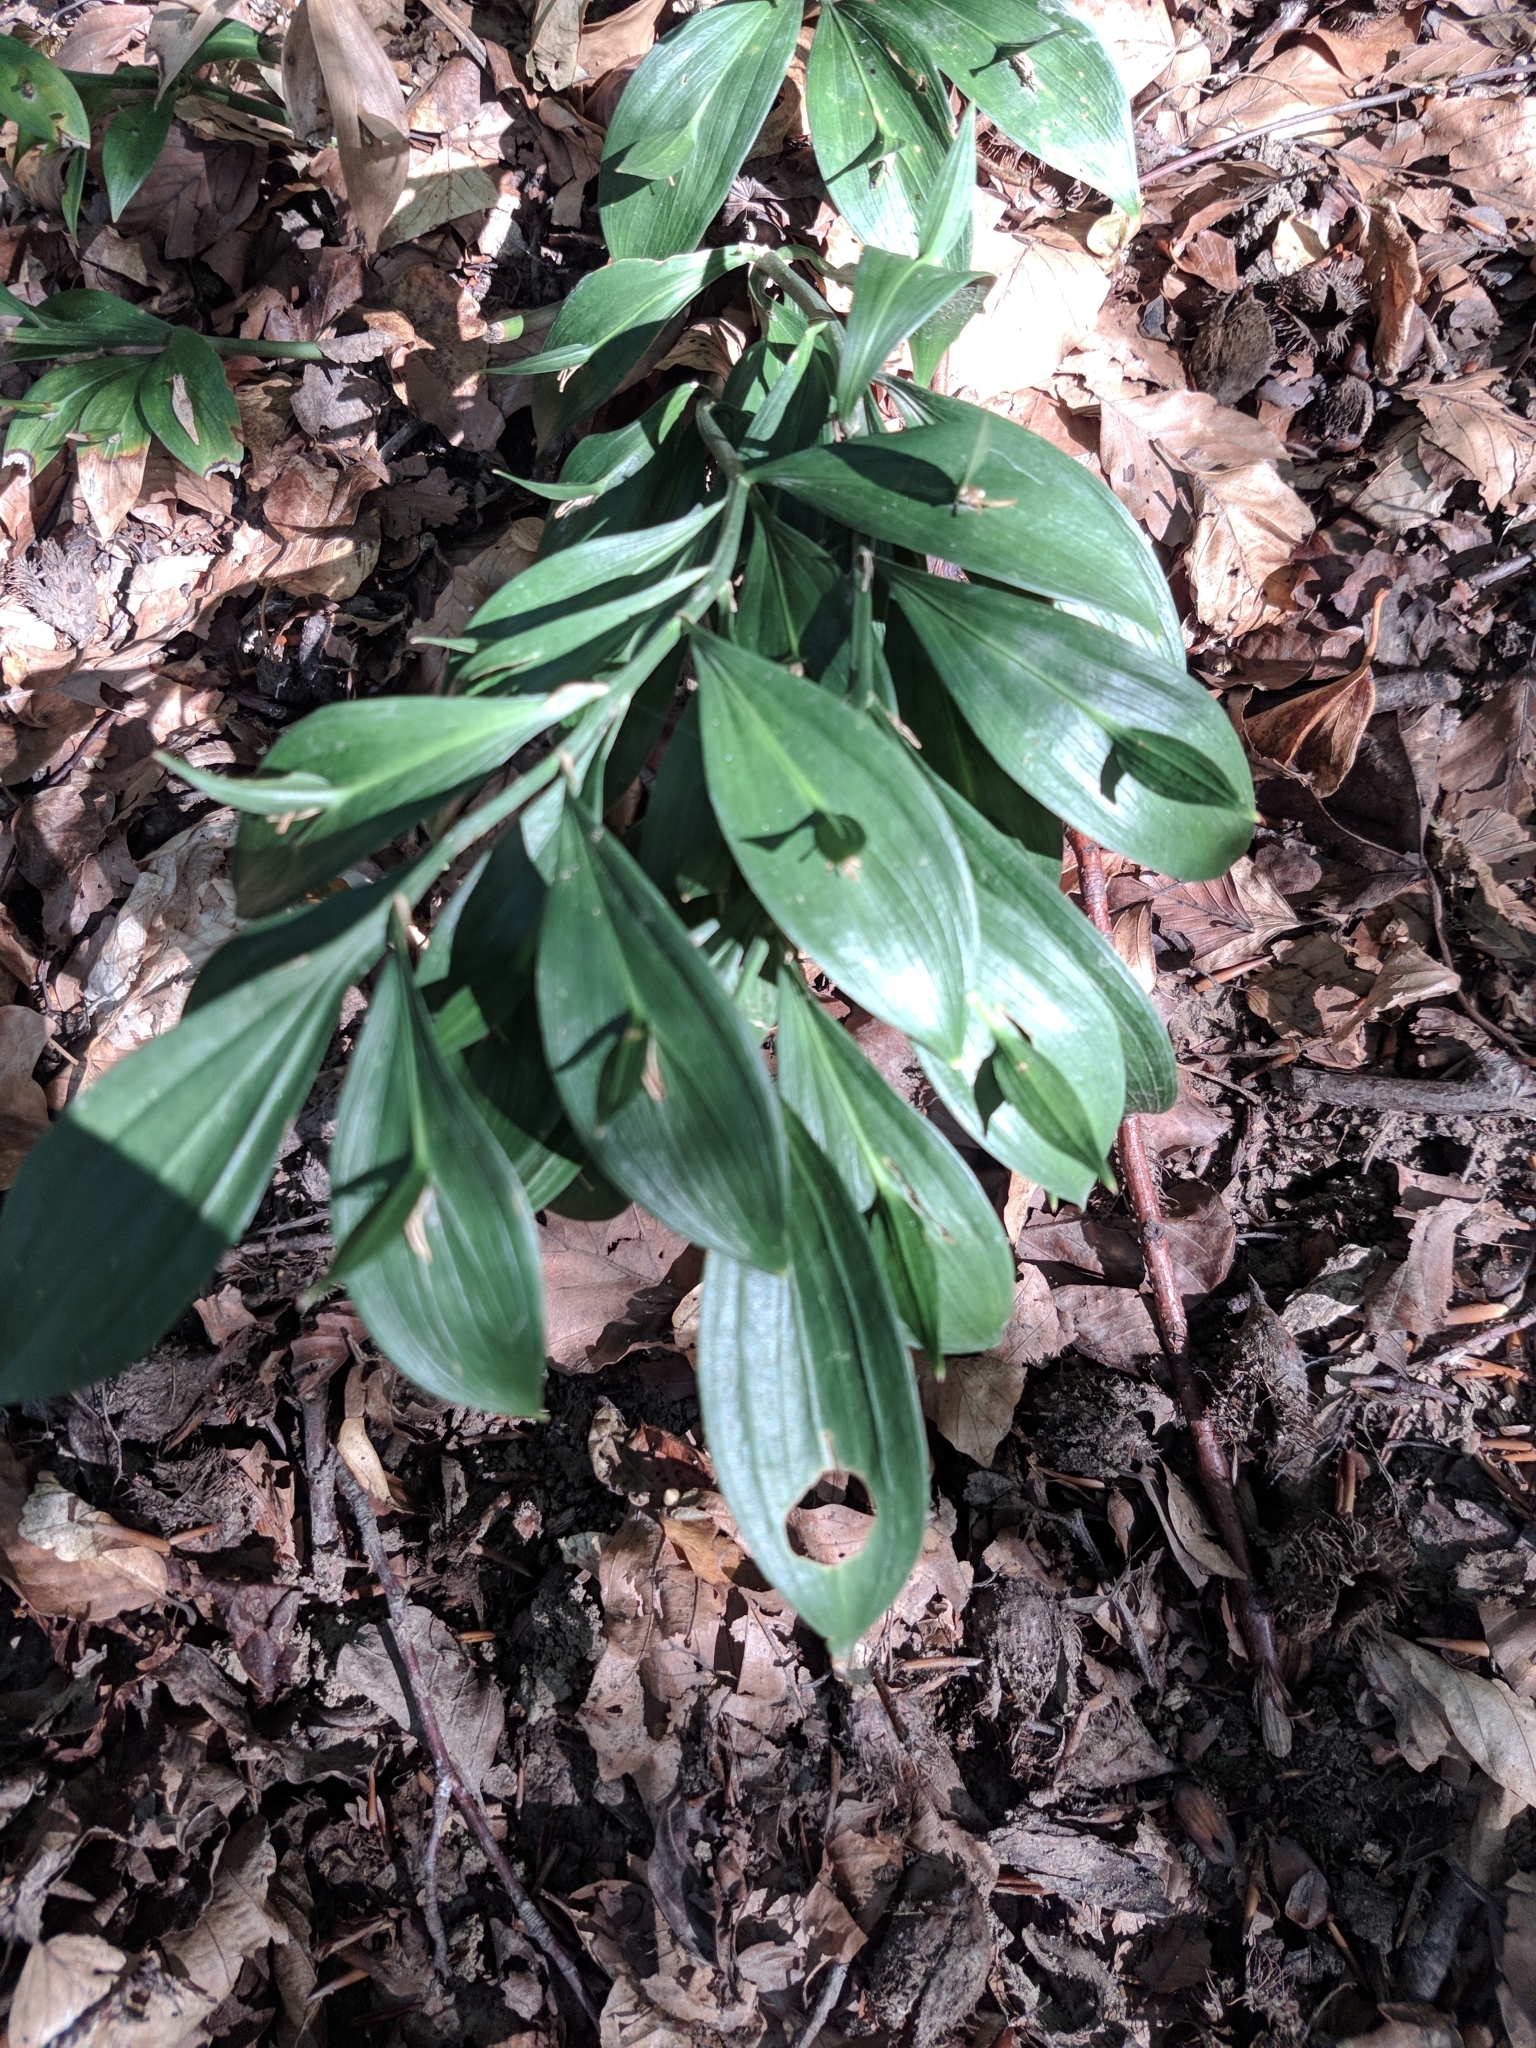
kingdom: Plantae
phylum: Tracheophyta
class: Liliopsida
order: Asparagales
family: Asparagaceae
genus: Ruscus
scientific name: Ruscus hypoglossum
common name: Spineless butcher's-broom
